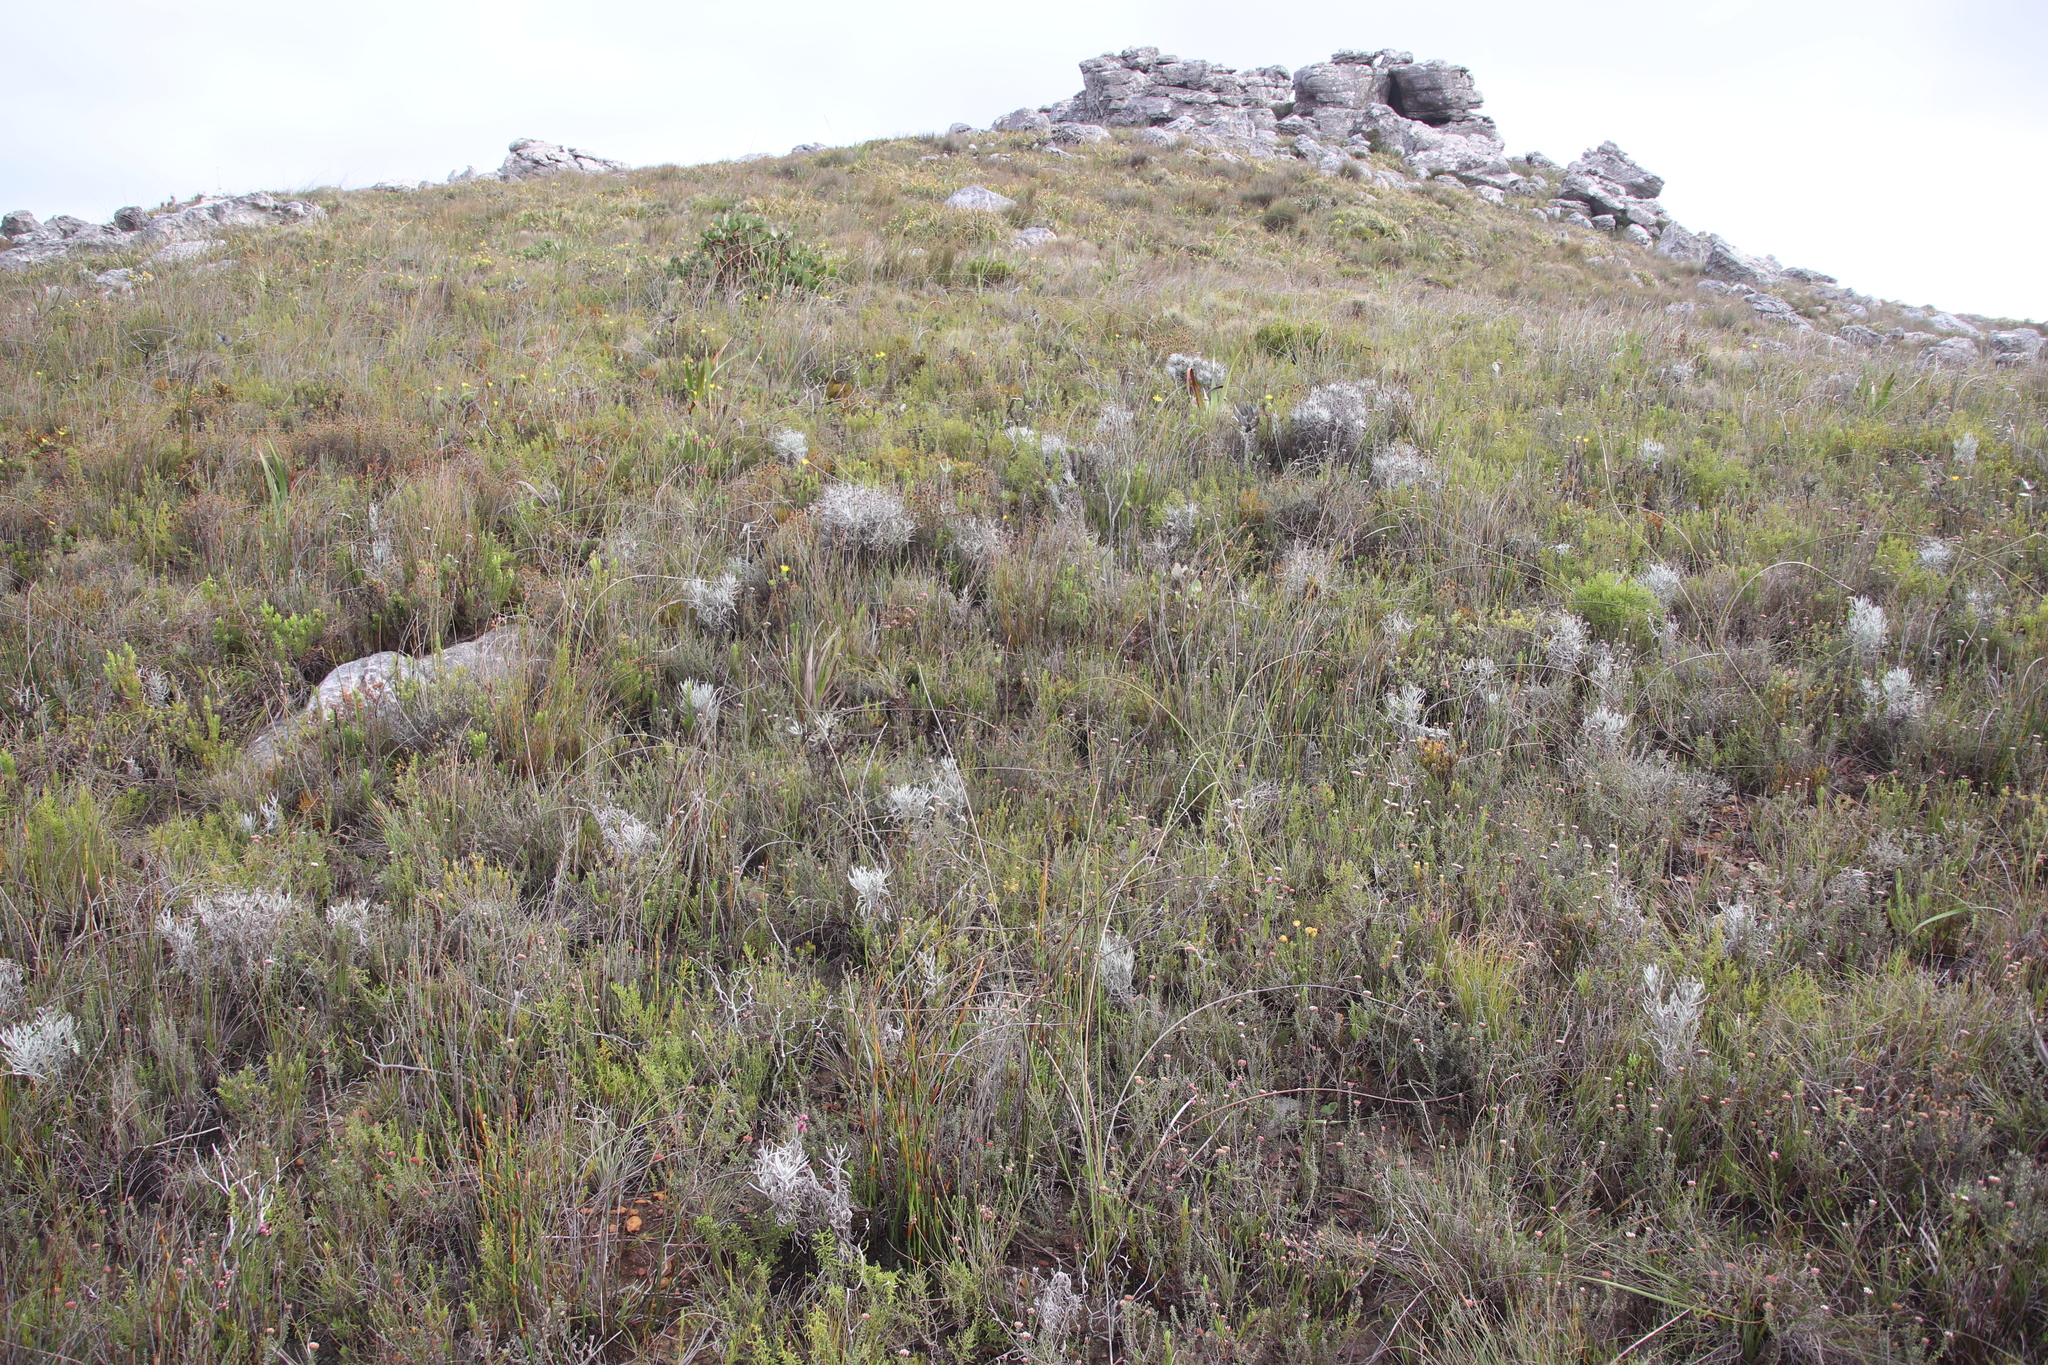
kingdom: Plantae
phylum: Tracheophyta
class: Magnoliopsida
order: Asterales
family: Asteraceae
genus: Syncarpha
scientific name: Syncarpha gnaphaloides
